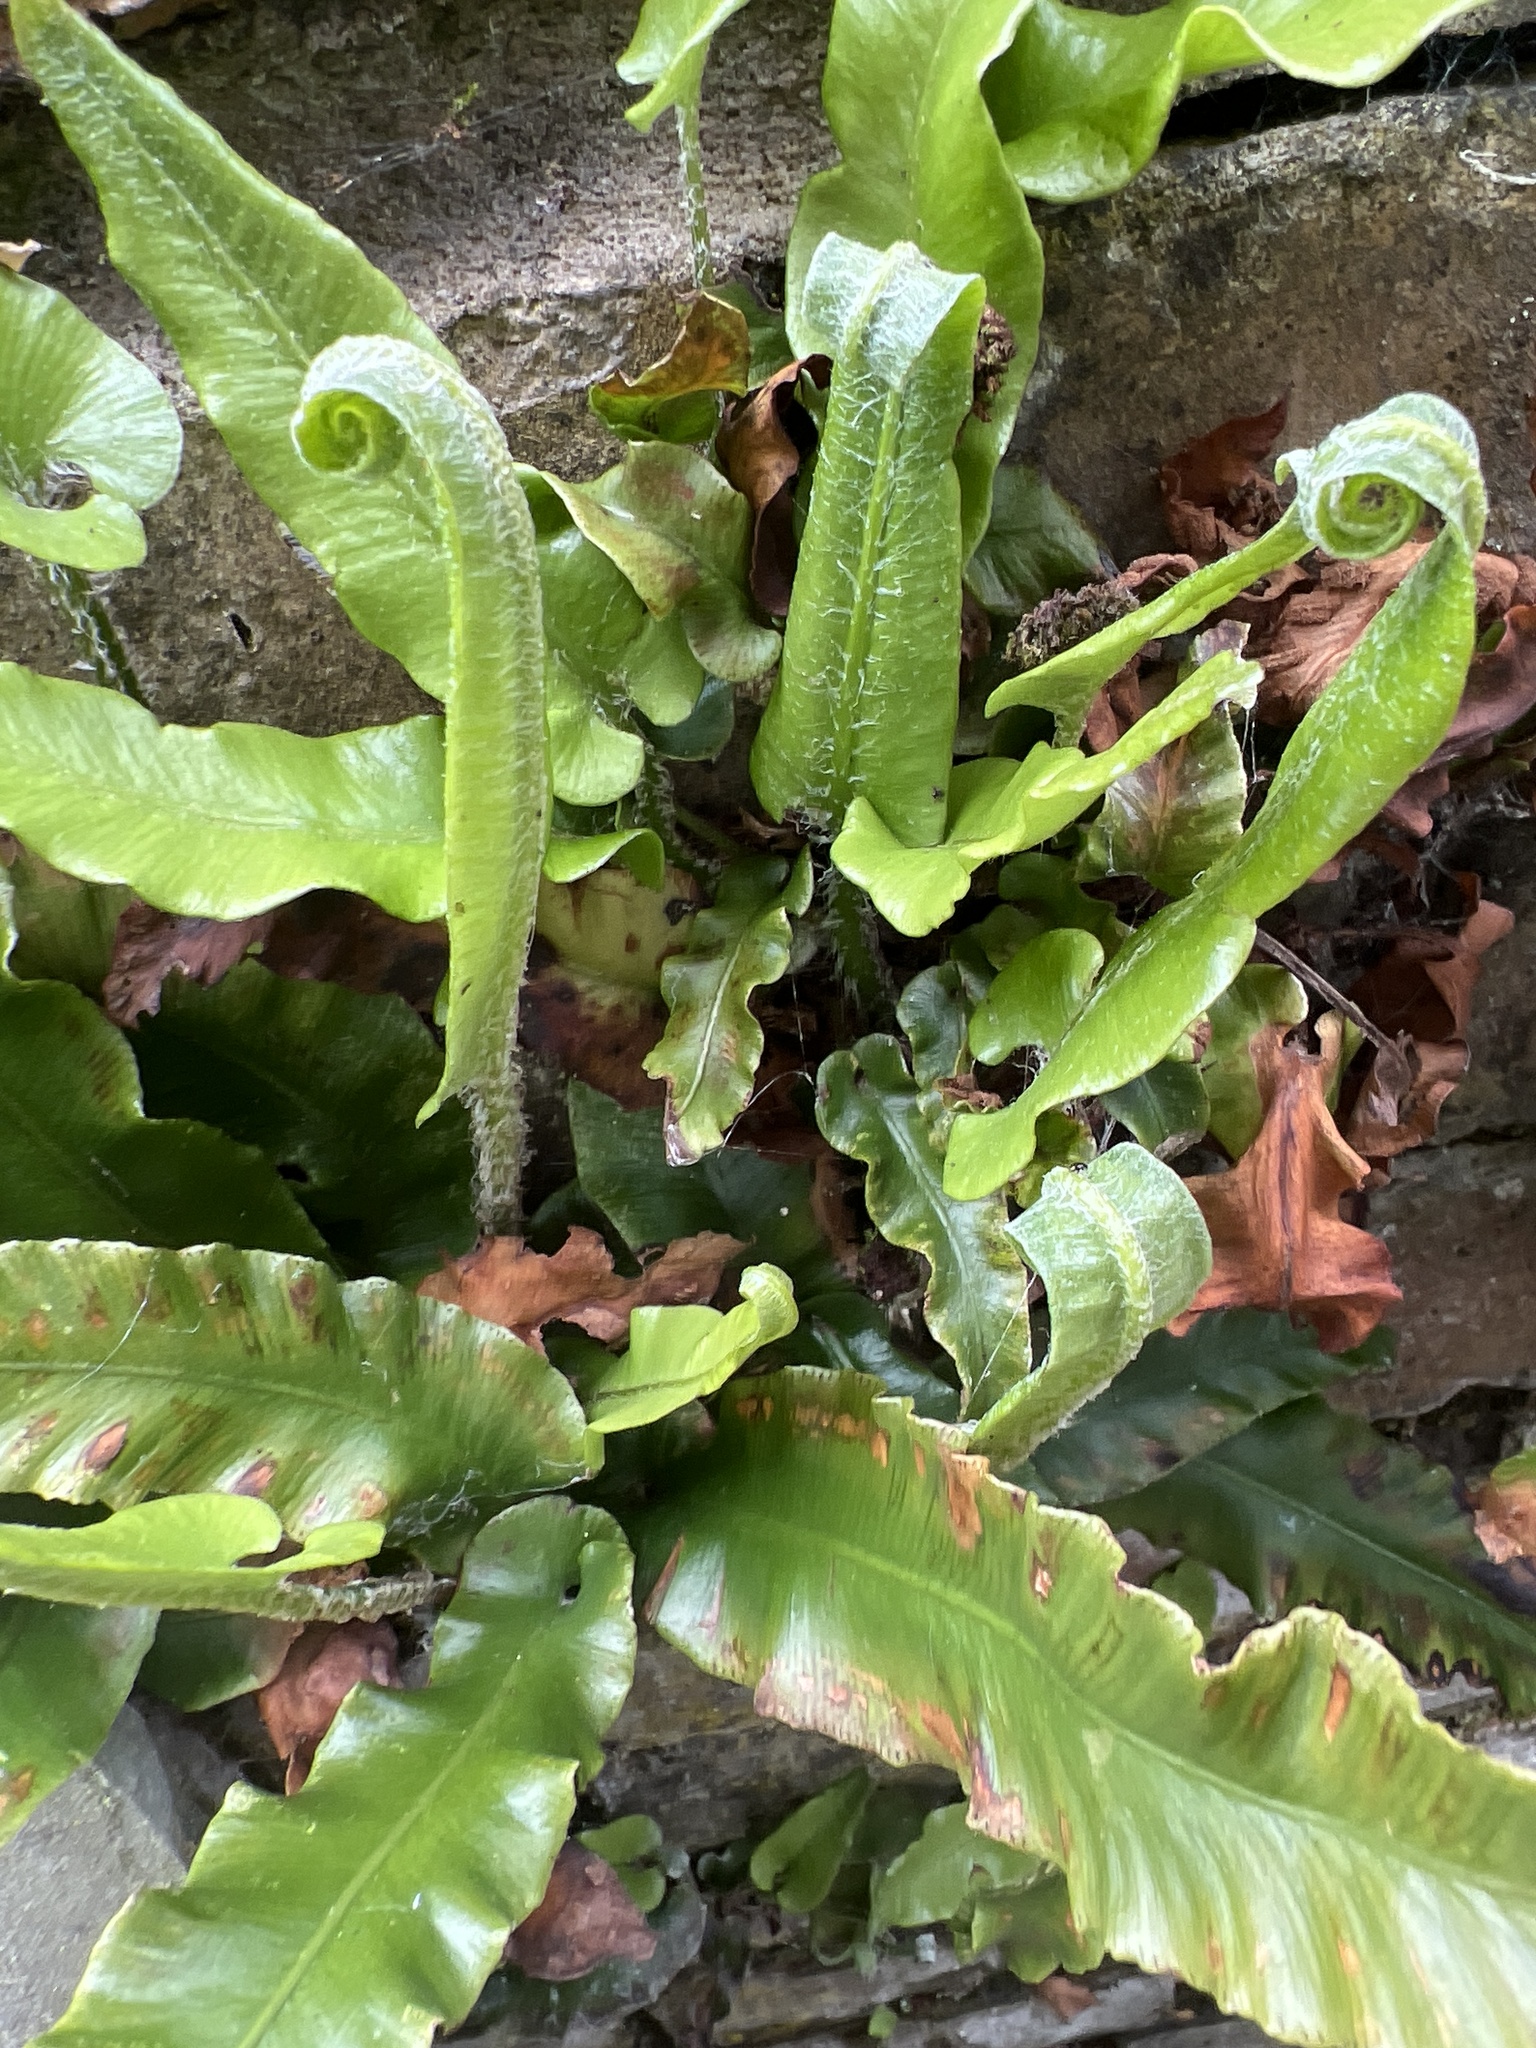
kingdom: Plantae
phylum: Tracheophyta
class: Polypodiopsida
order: Polypodiales
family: Aspleniaceae
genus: Asplenium
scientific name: Asplenium scolopendrium
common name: Hart's-tongue fern
